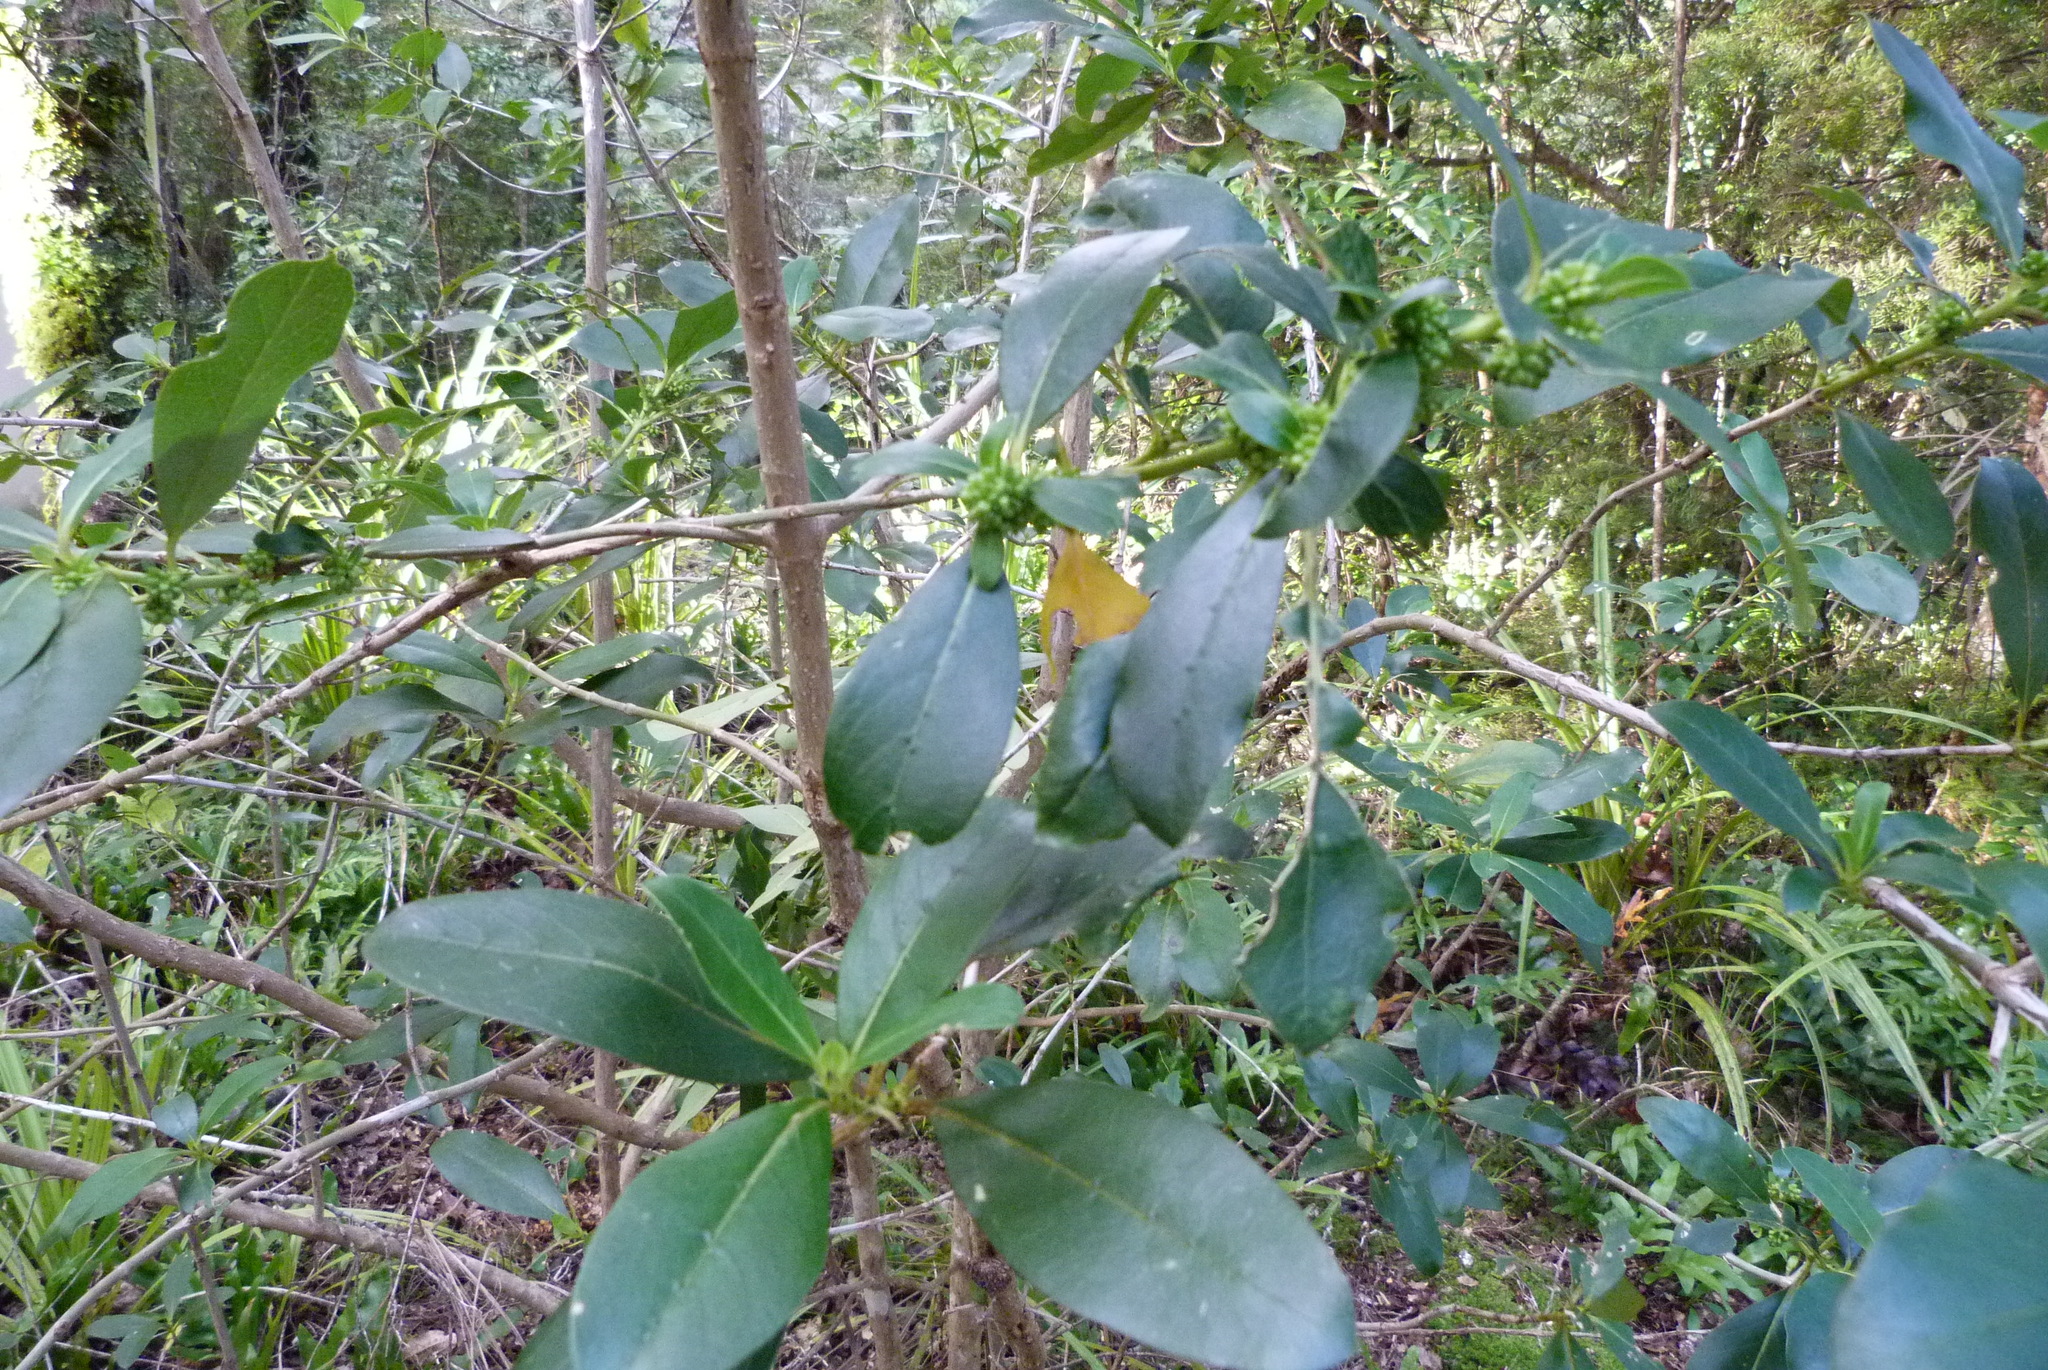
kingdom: Plantae
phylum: Tracheophyta
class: Magnoliopsida
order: Gentianales
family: Rubiaceae
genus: Coprosma
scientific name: Coprosma robusta
